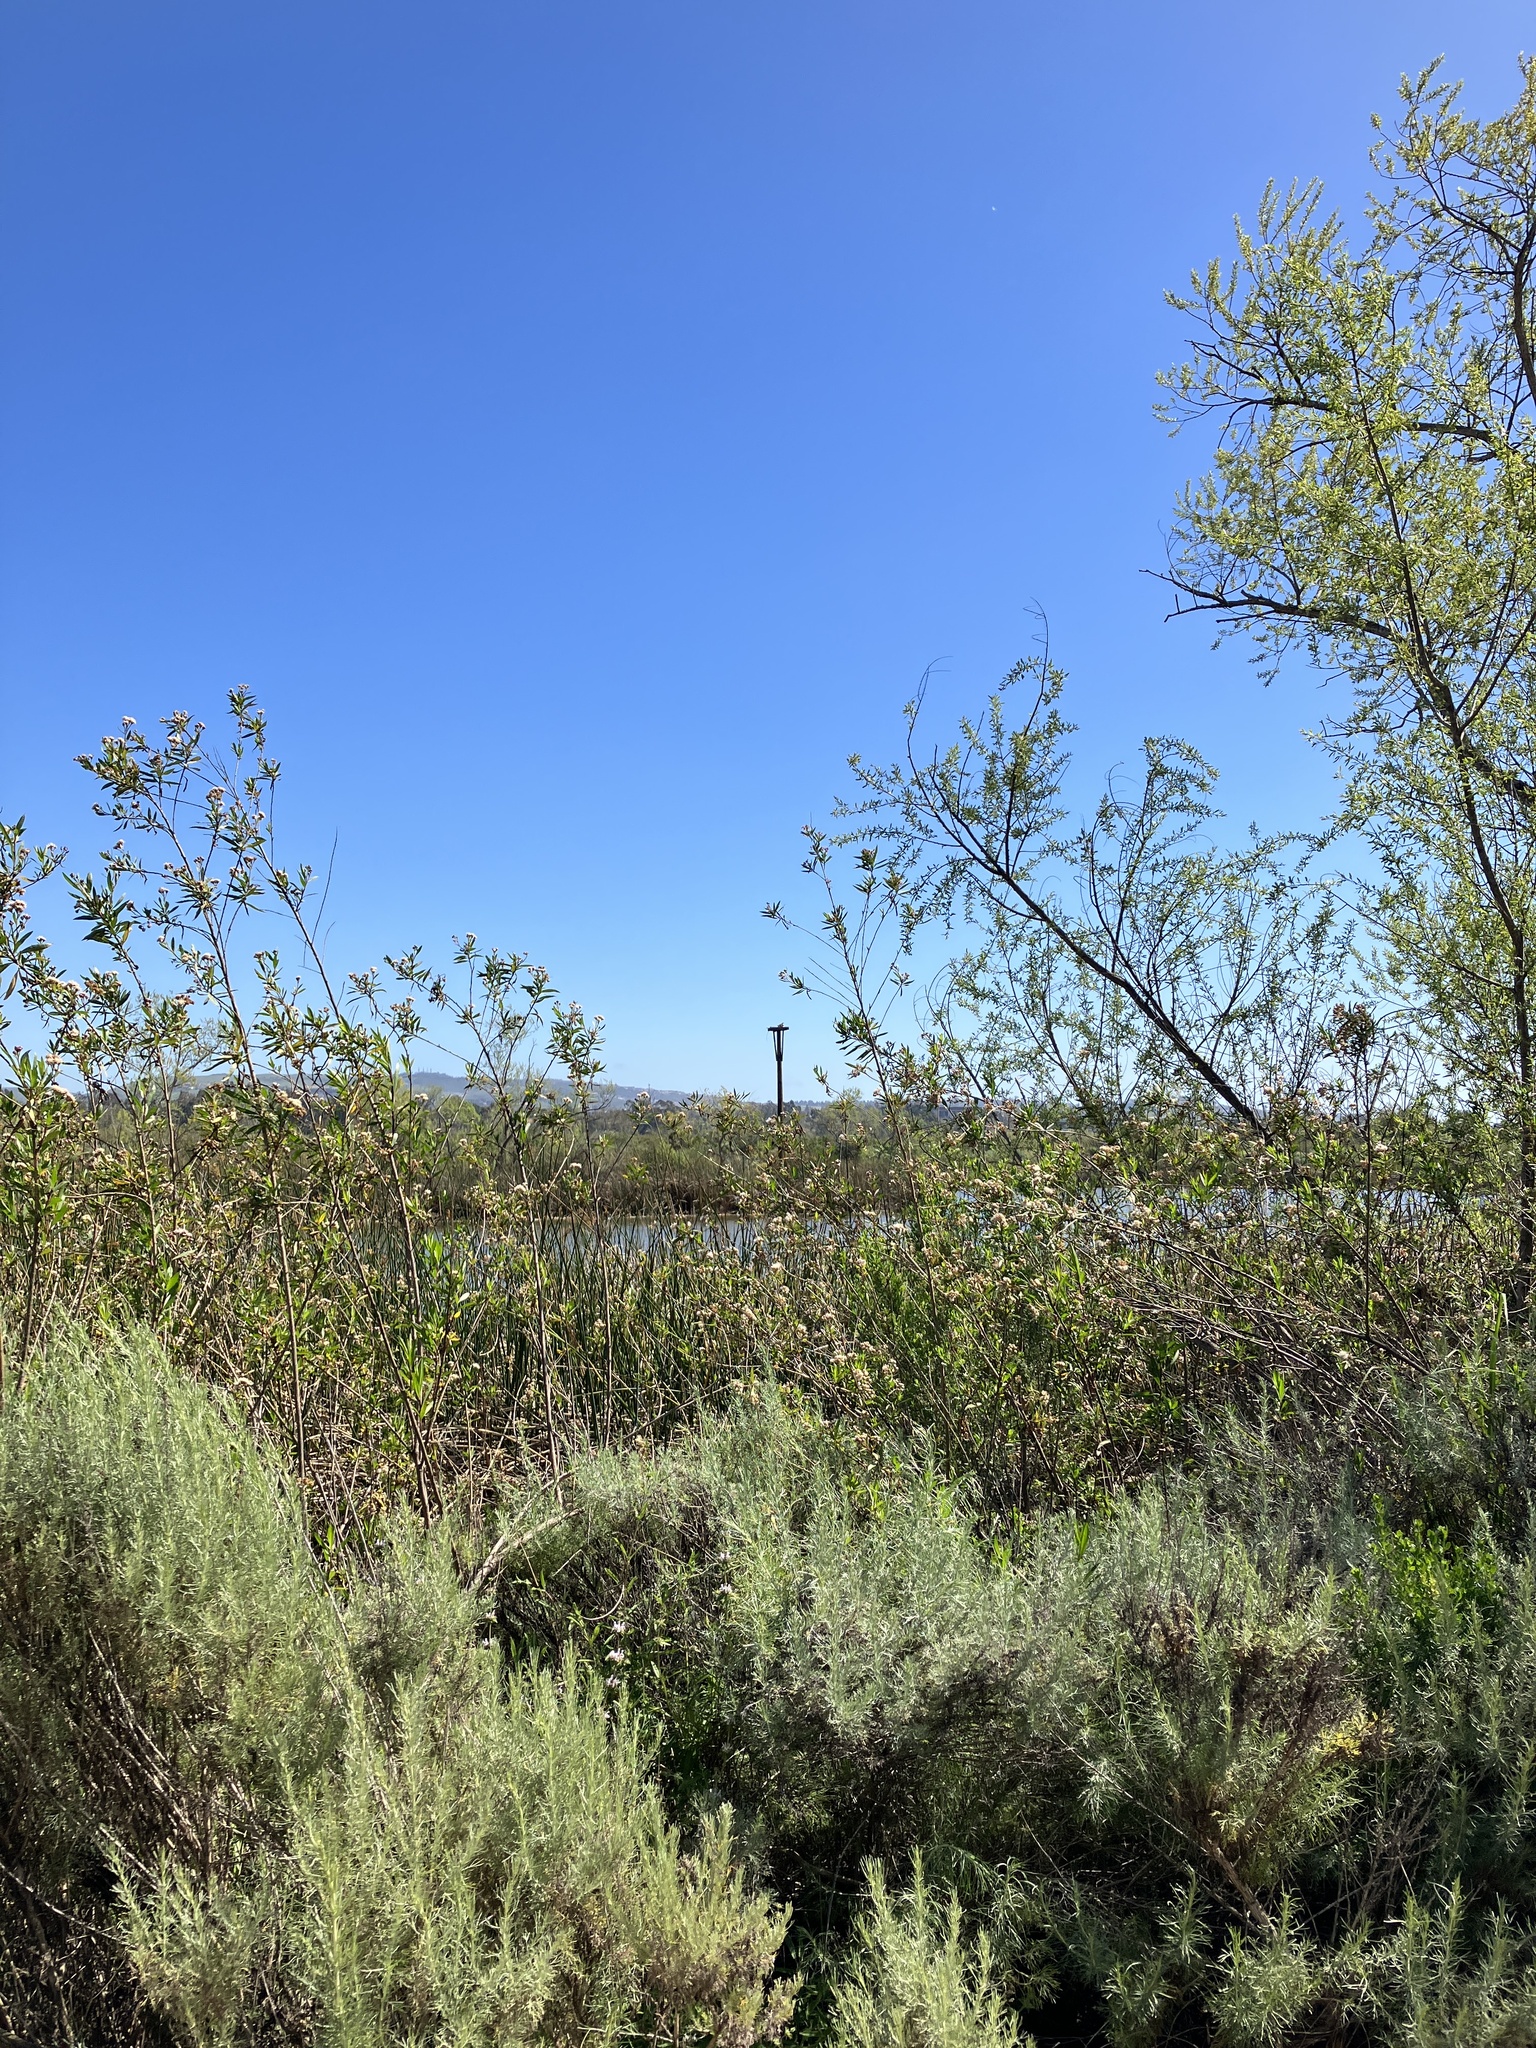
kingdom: Animalia
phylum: Chordata
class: Aves
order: Accipitriformes
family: Pandionidae
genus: Pandion
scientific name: Pandion haliaetus
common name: Osprey
